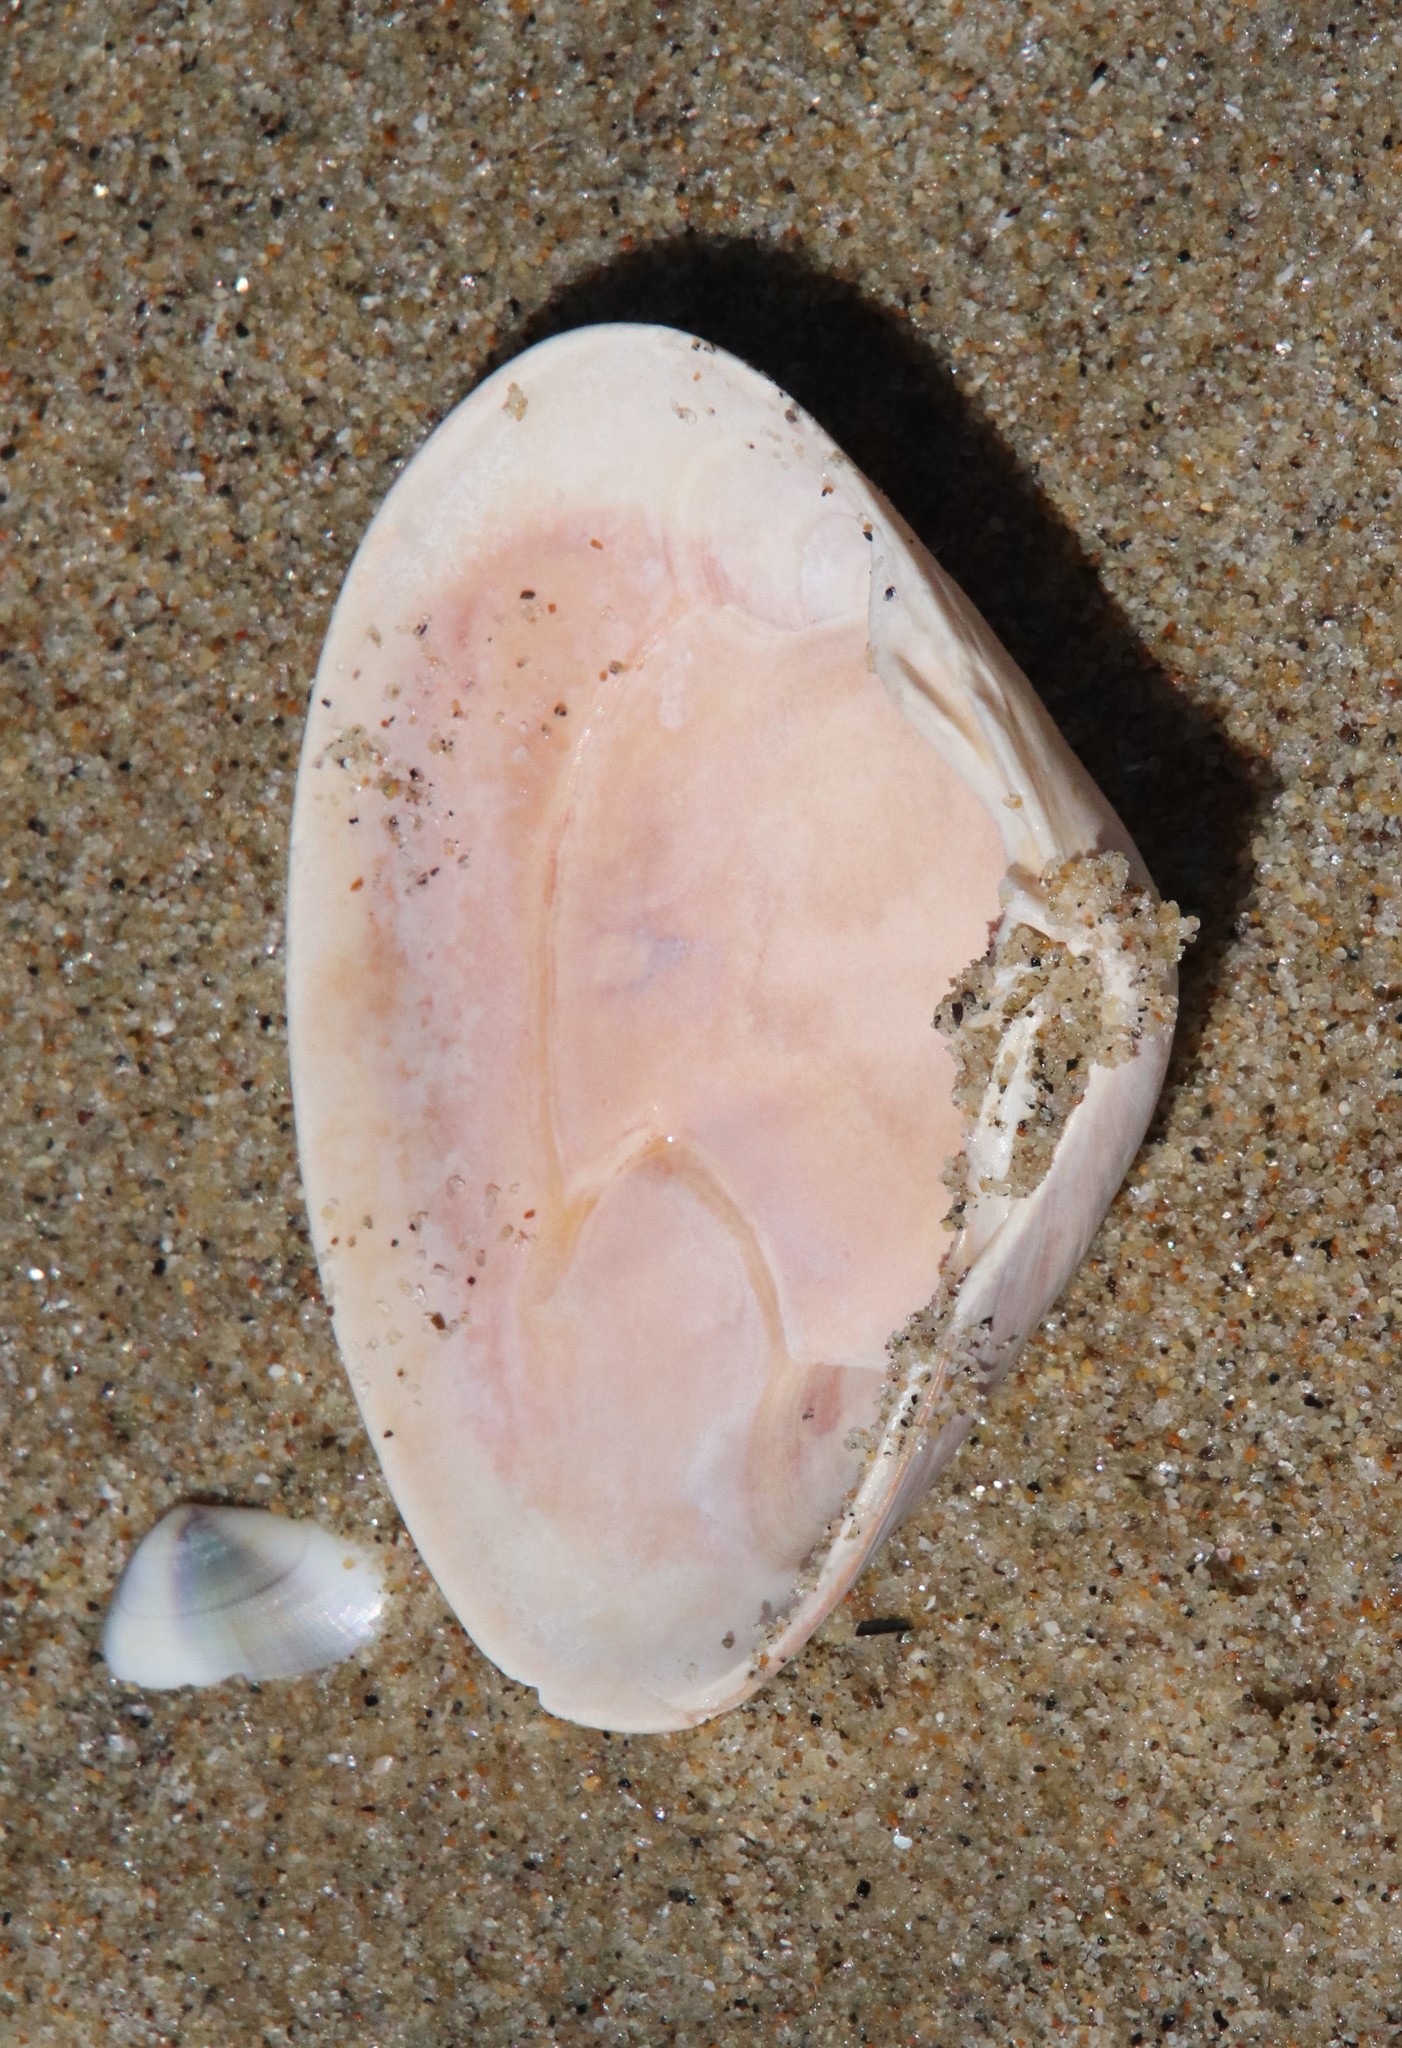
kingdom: Animalia
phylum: Mollusca
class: Bivalvia
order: Venerida
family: Veneridae
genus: Tivela
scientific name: Tivela stultorum
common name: Pismo clam
